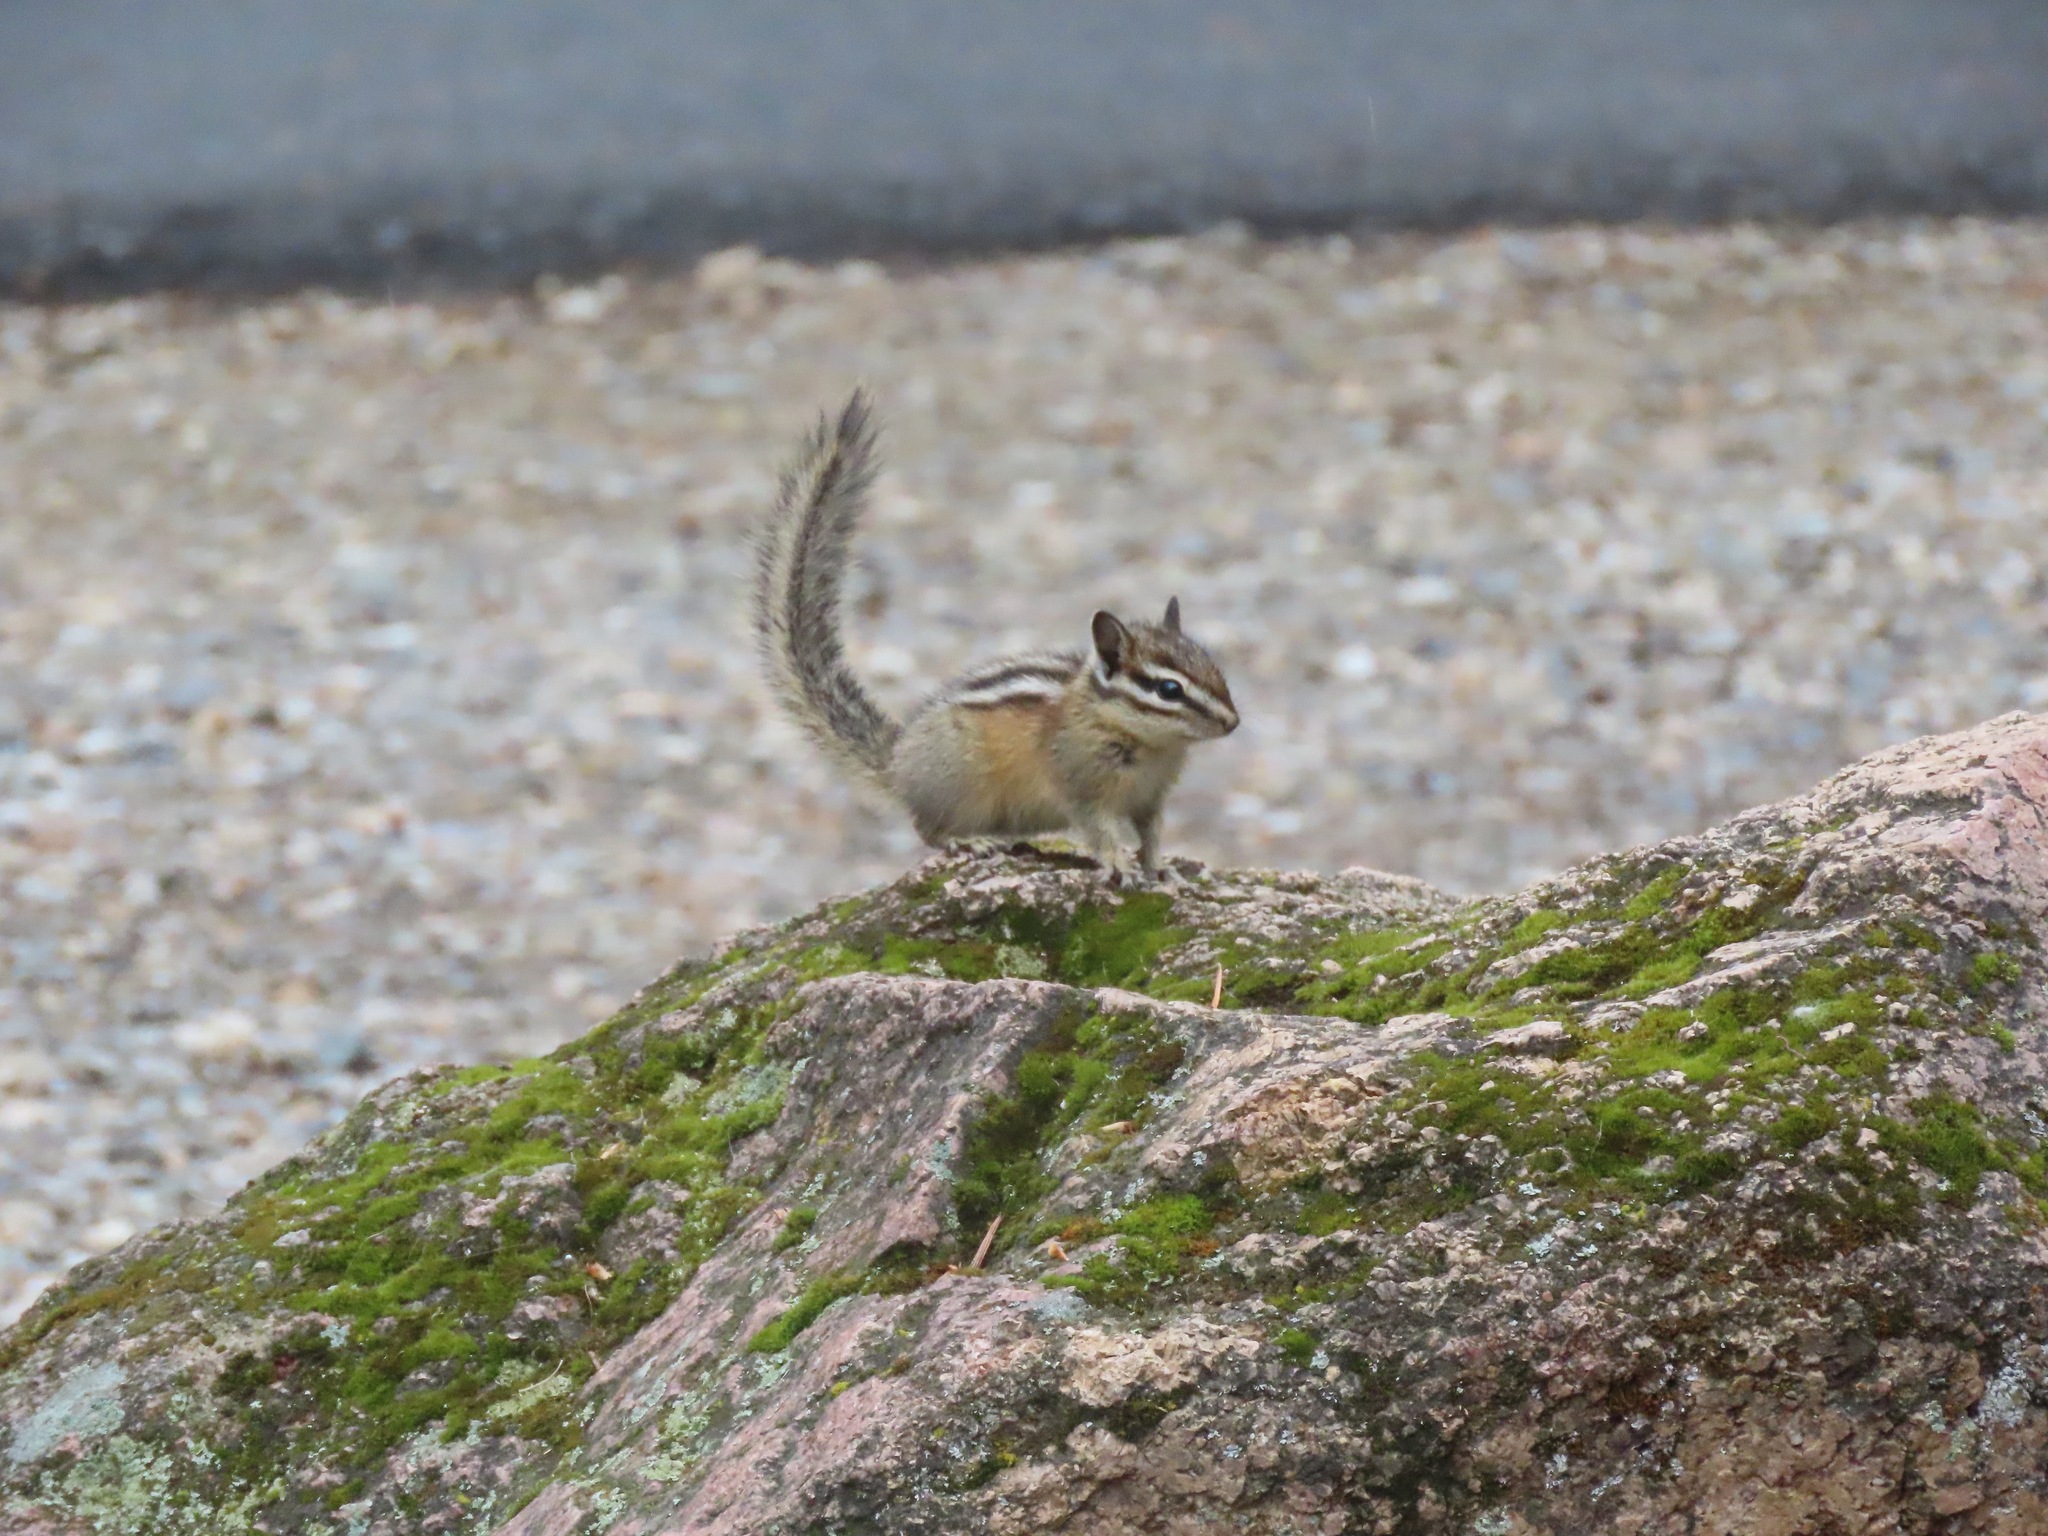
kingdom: Animalia
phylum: Chordata
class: Mammalia
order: Rodentia
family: Sciuridae
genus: Tamias
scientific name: Tamias amoenus
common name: Yellow-pine chipmunk
